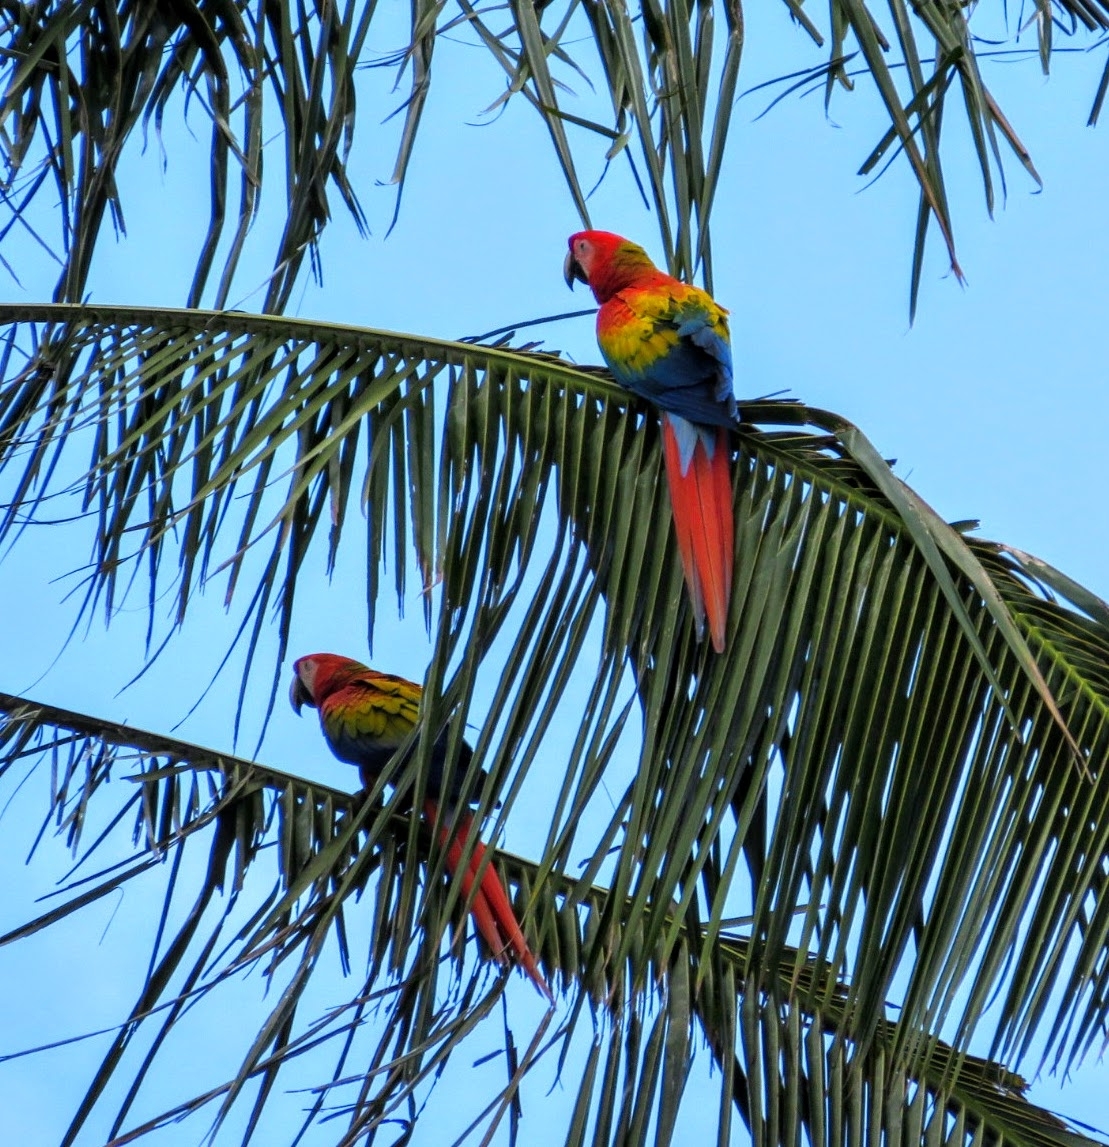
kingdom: Animalia
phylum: Chordata
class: Aves
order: Psittaciformes
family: Psittacidae
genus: Ara
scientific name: Ara macao
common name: Scarlet macaw
